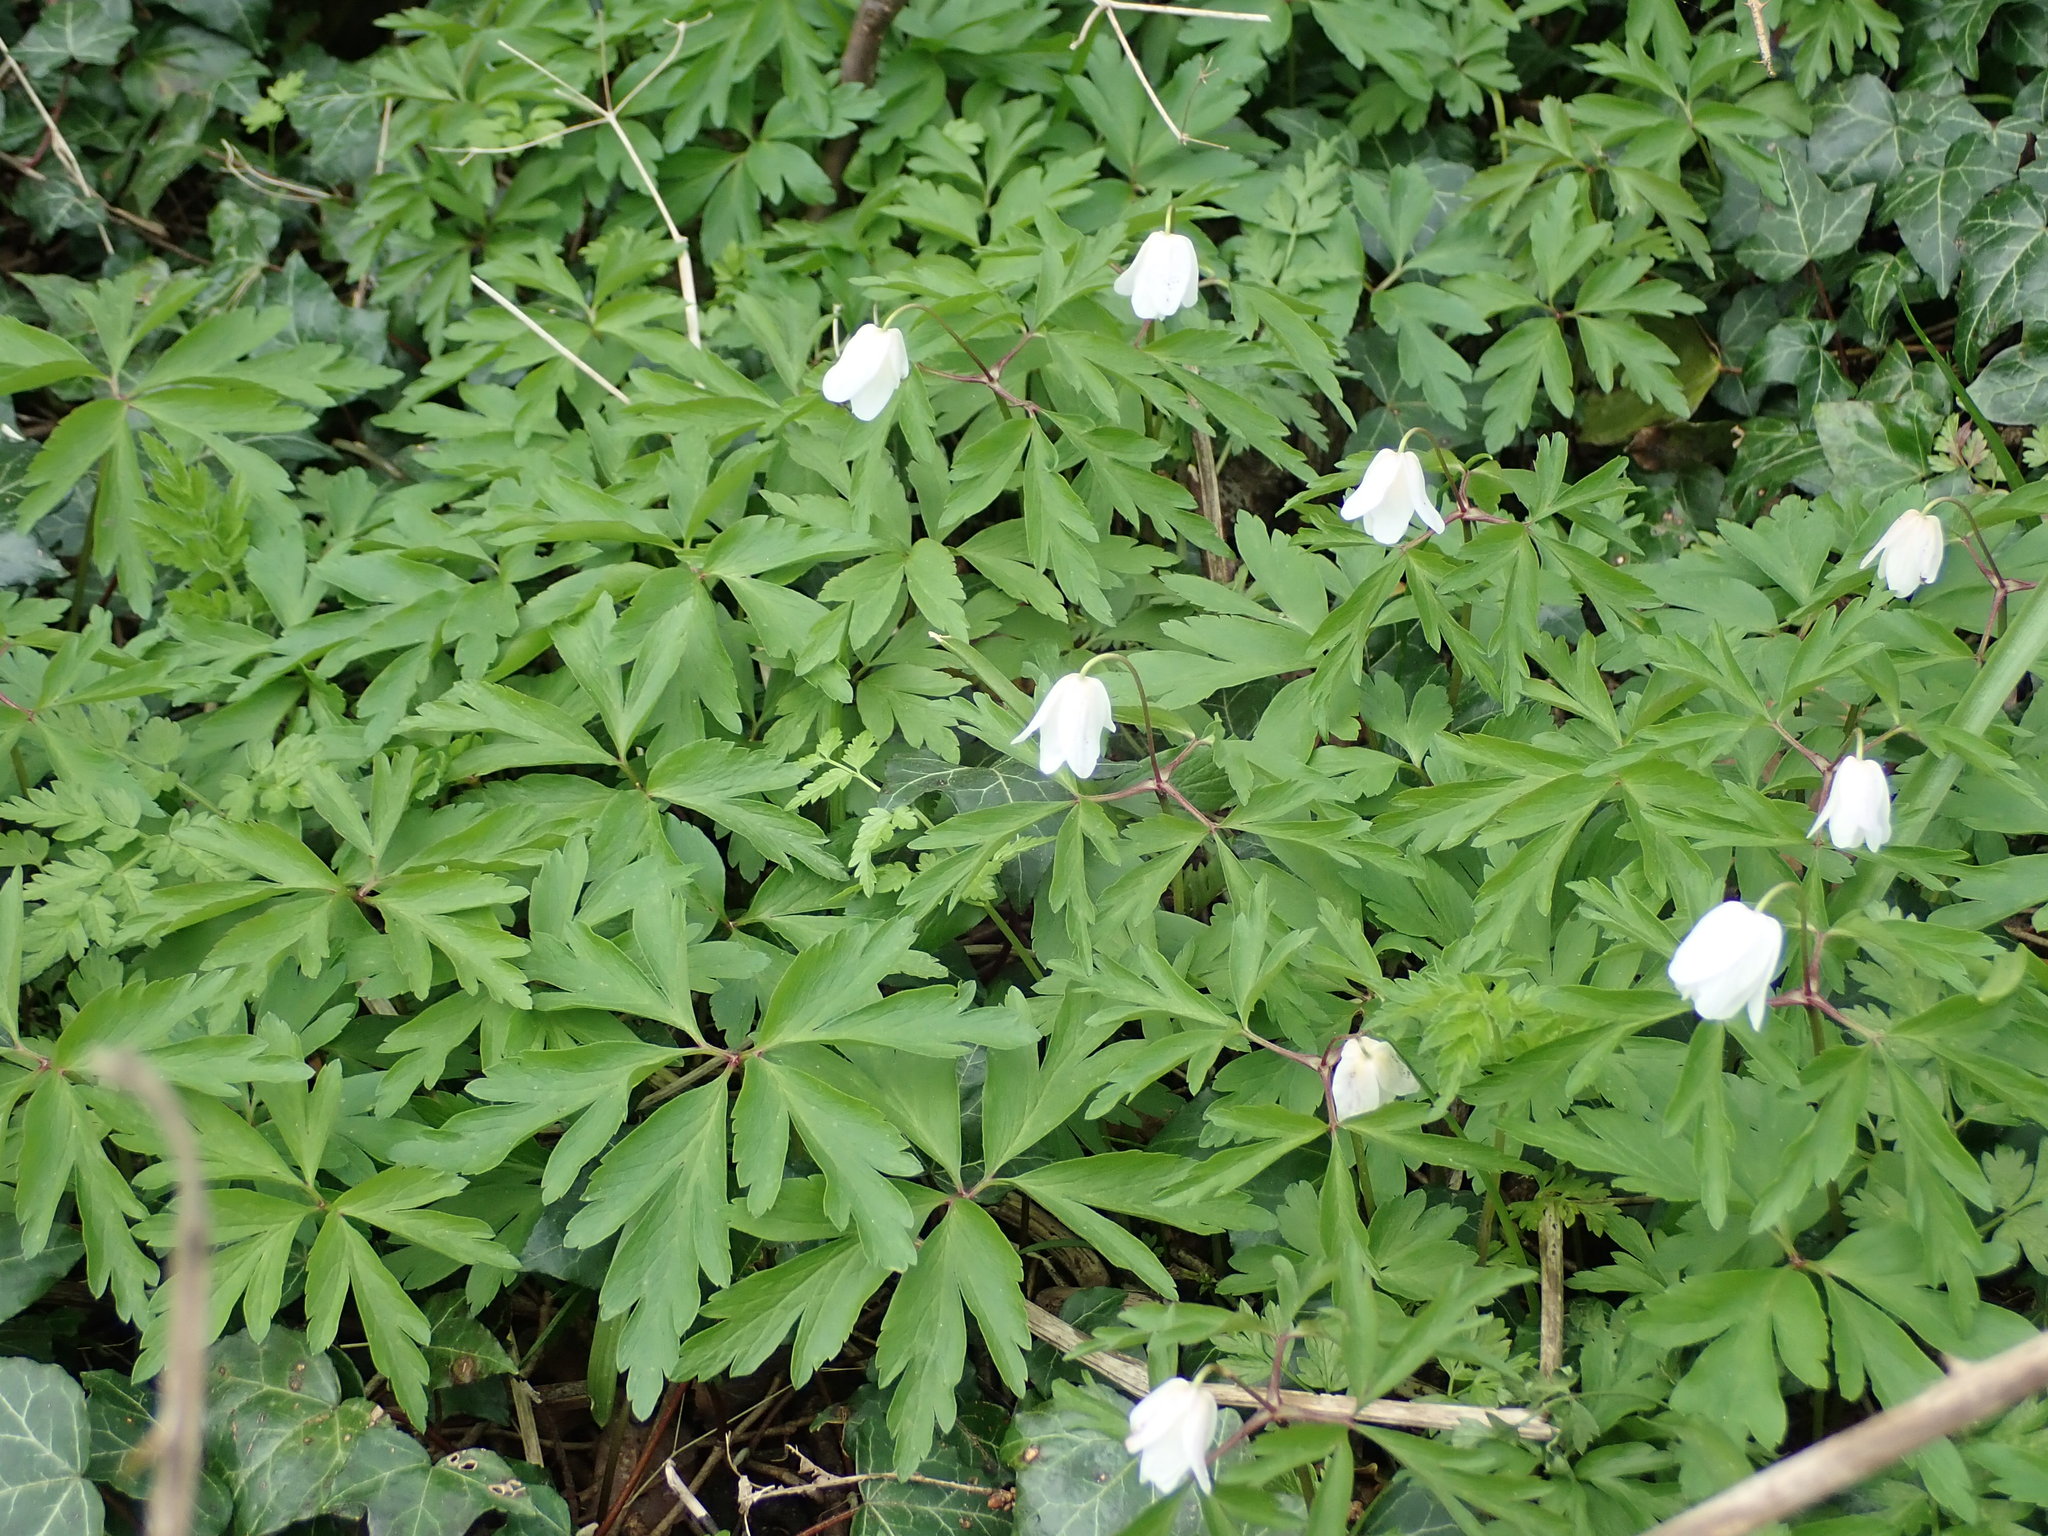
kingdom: Plantae
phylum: Tracheophyta
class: Magnoliopsida
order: Ranunculales
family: Ranunculaceae
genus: Anemone
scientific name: Anemone nemorosa
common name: Wood anemone
